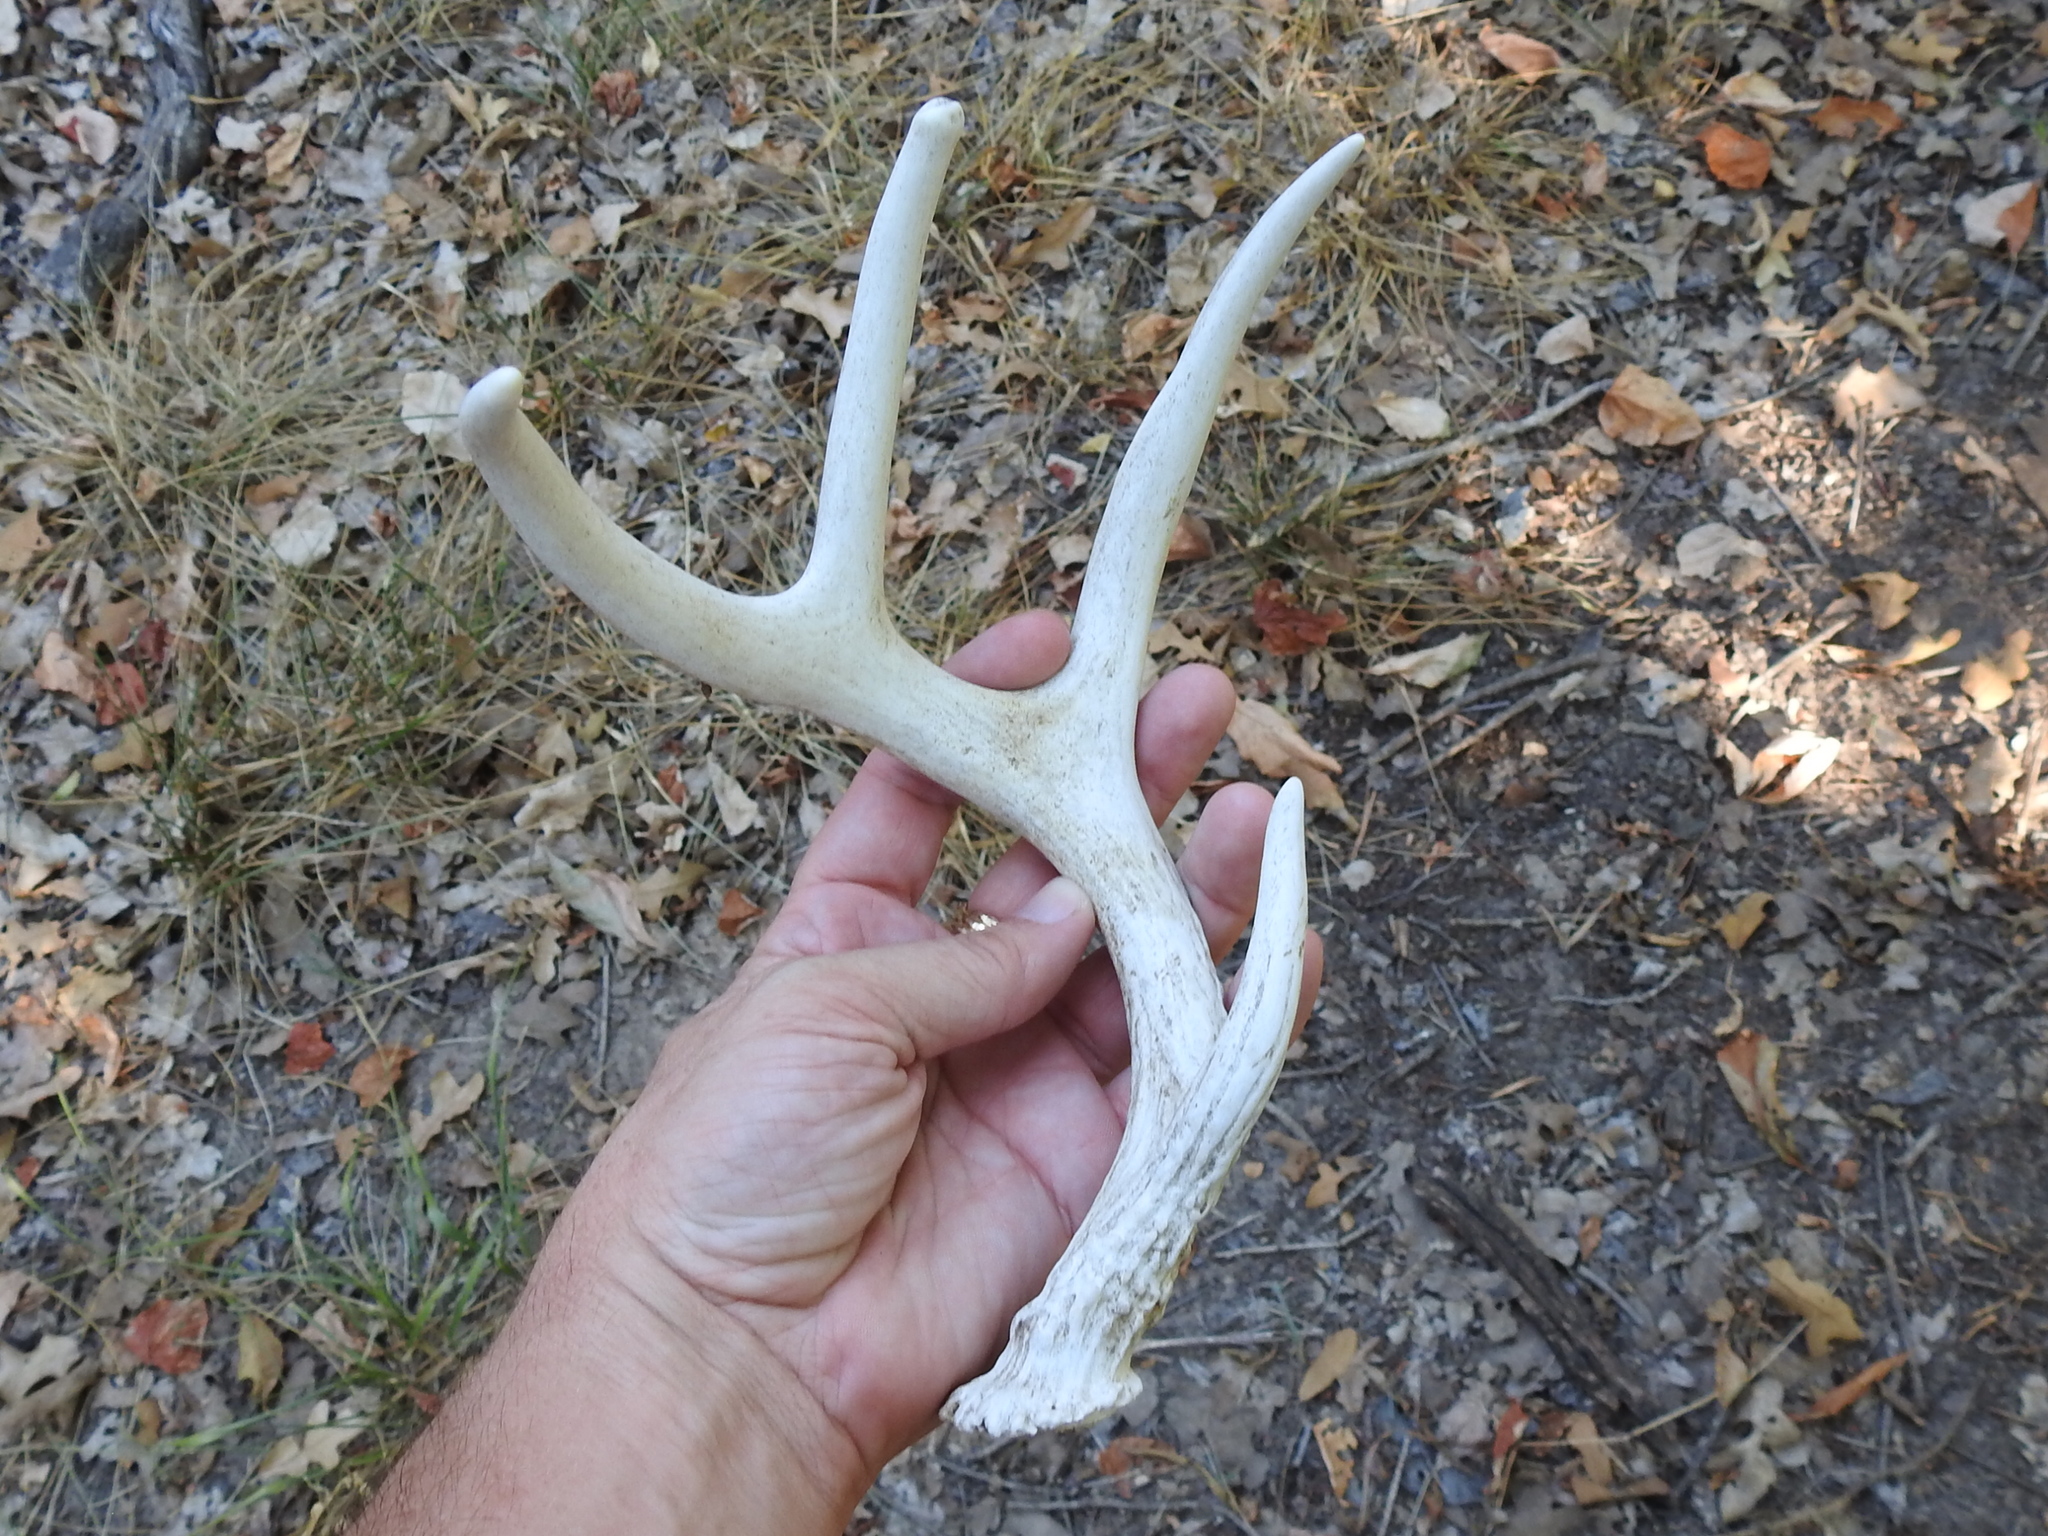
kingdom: Animalia
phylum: Chordata
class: Mammalia
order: Artiodactyla
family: Cervidae
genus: Odocoileus
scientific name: Odocoileus virginianus
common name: White-tailed deer
